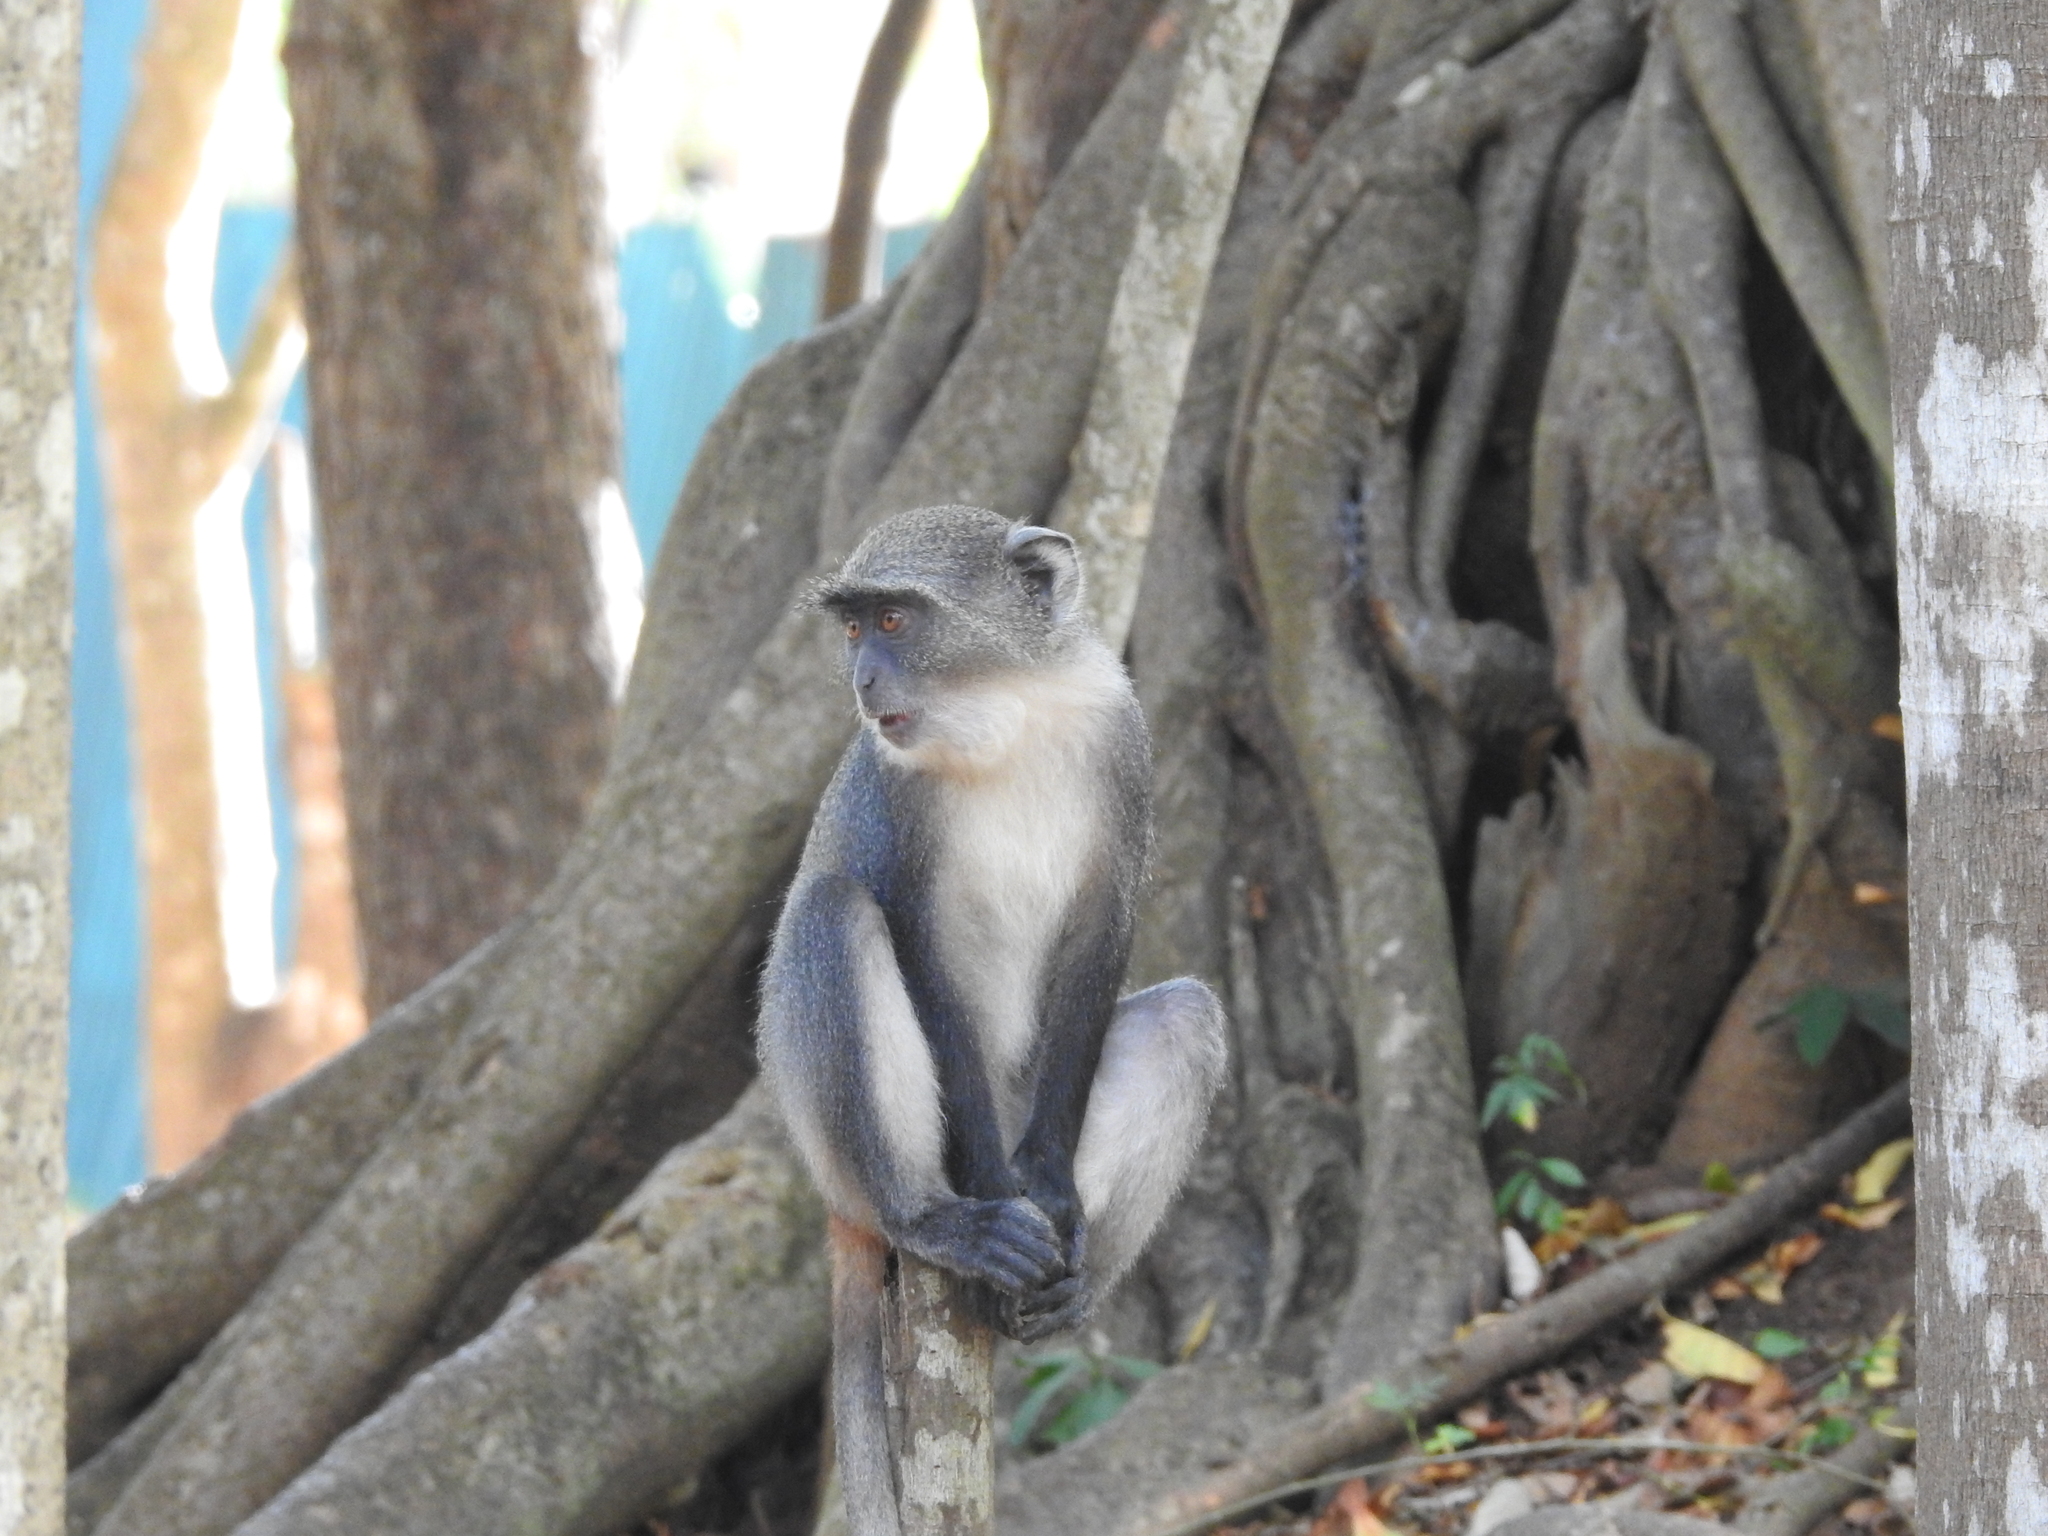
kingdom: Animalia
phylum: Chordata
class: Mammalia
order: Primates
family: Cercopithecidae
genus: Cercopithecus
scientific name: Cercopithecus mitis
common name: Blue monkey
